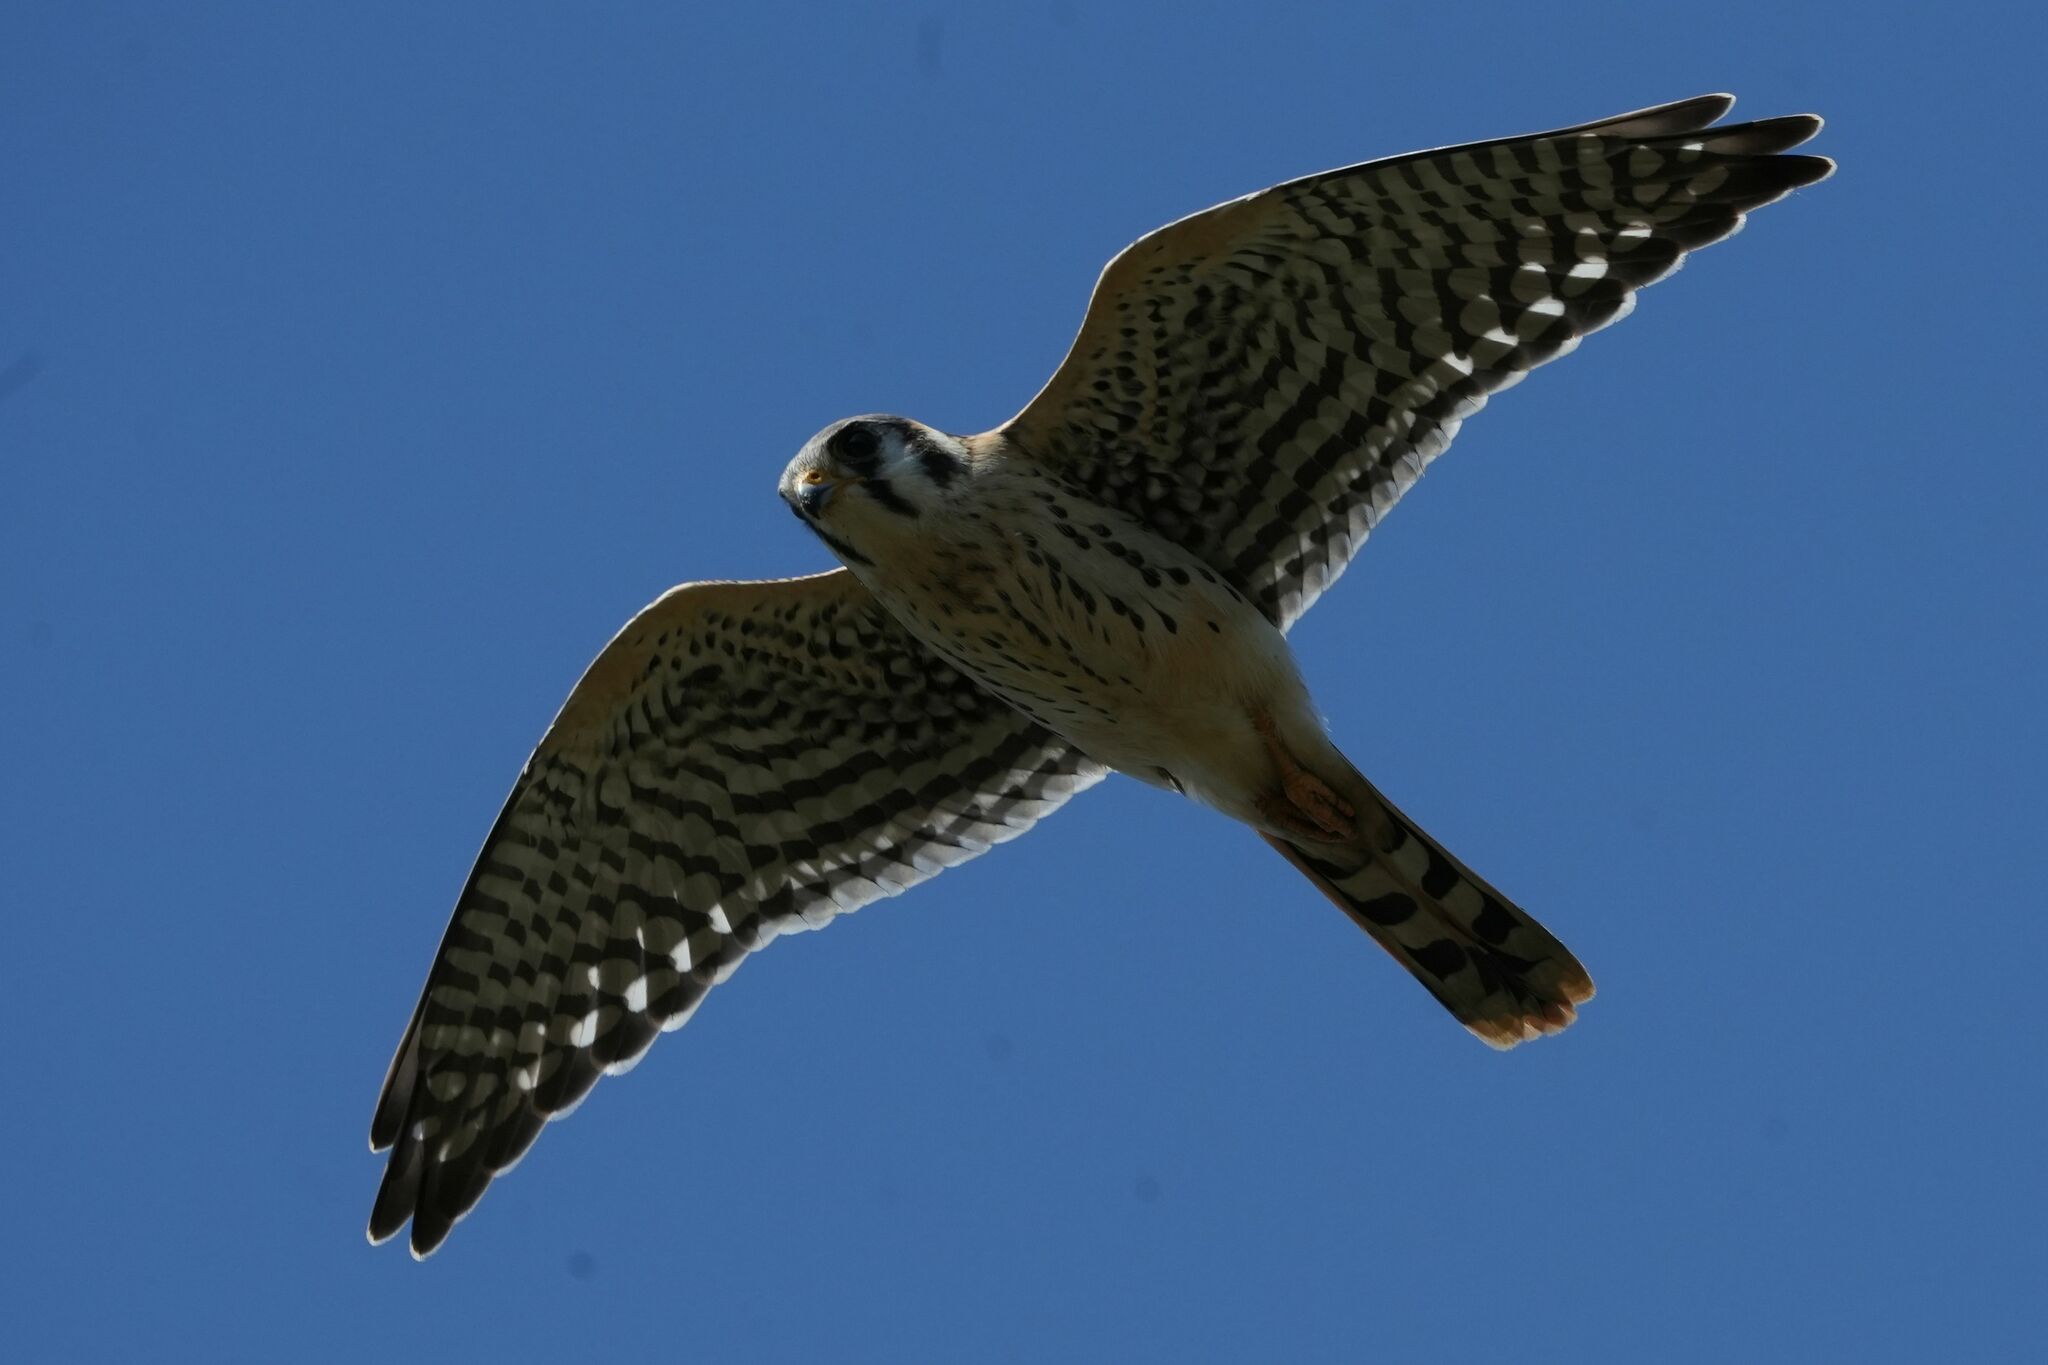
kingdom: Animalia
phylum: Chordata
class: Aves
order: Falconiformes
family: Falconidae
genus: Falco
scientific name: Falco sparverius
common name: American kestrel
